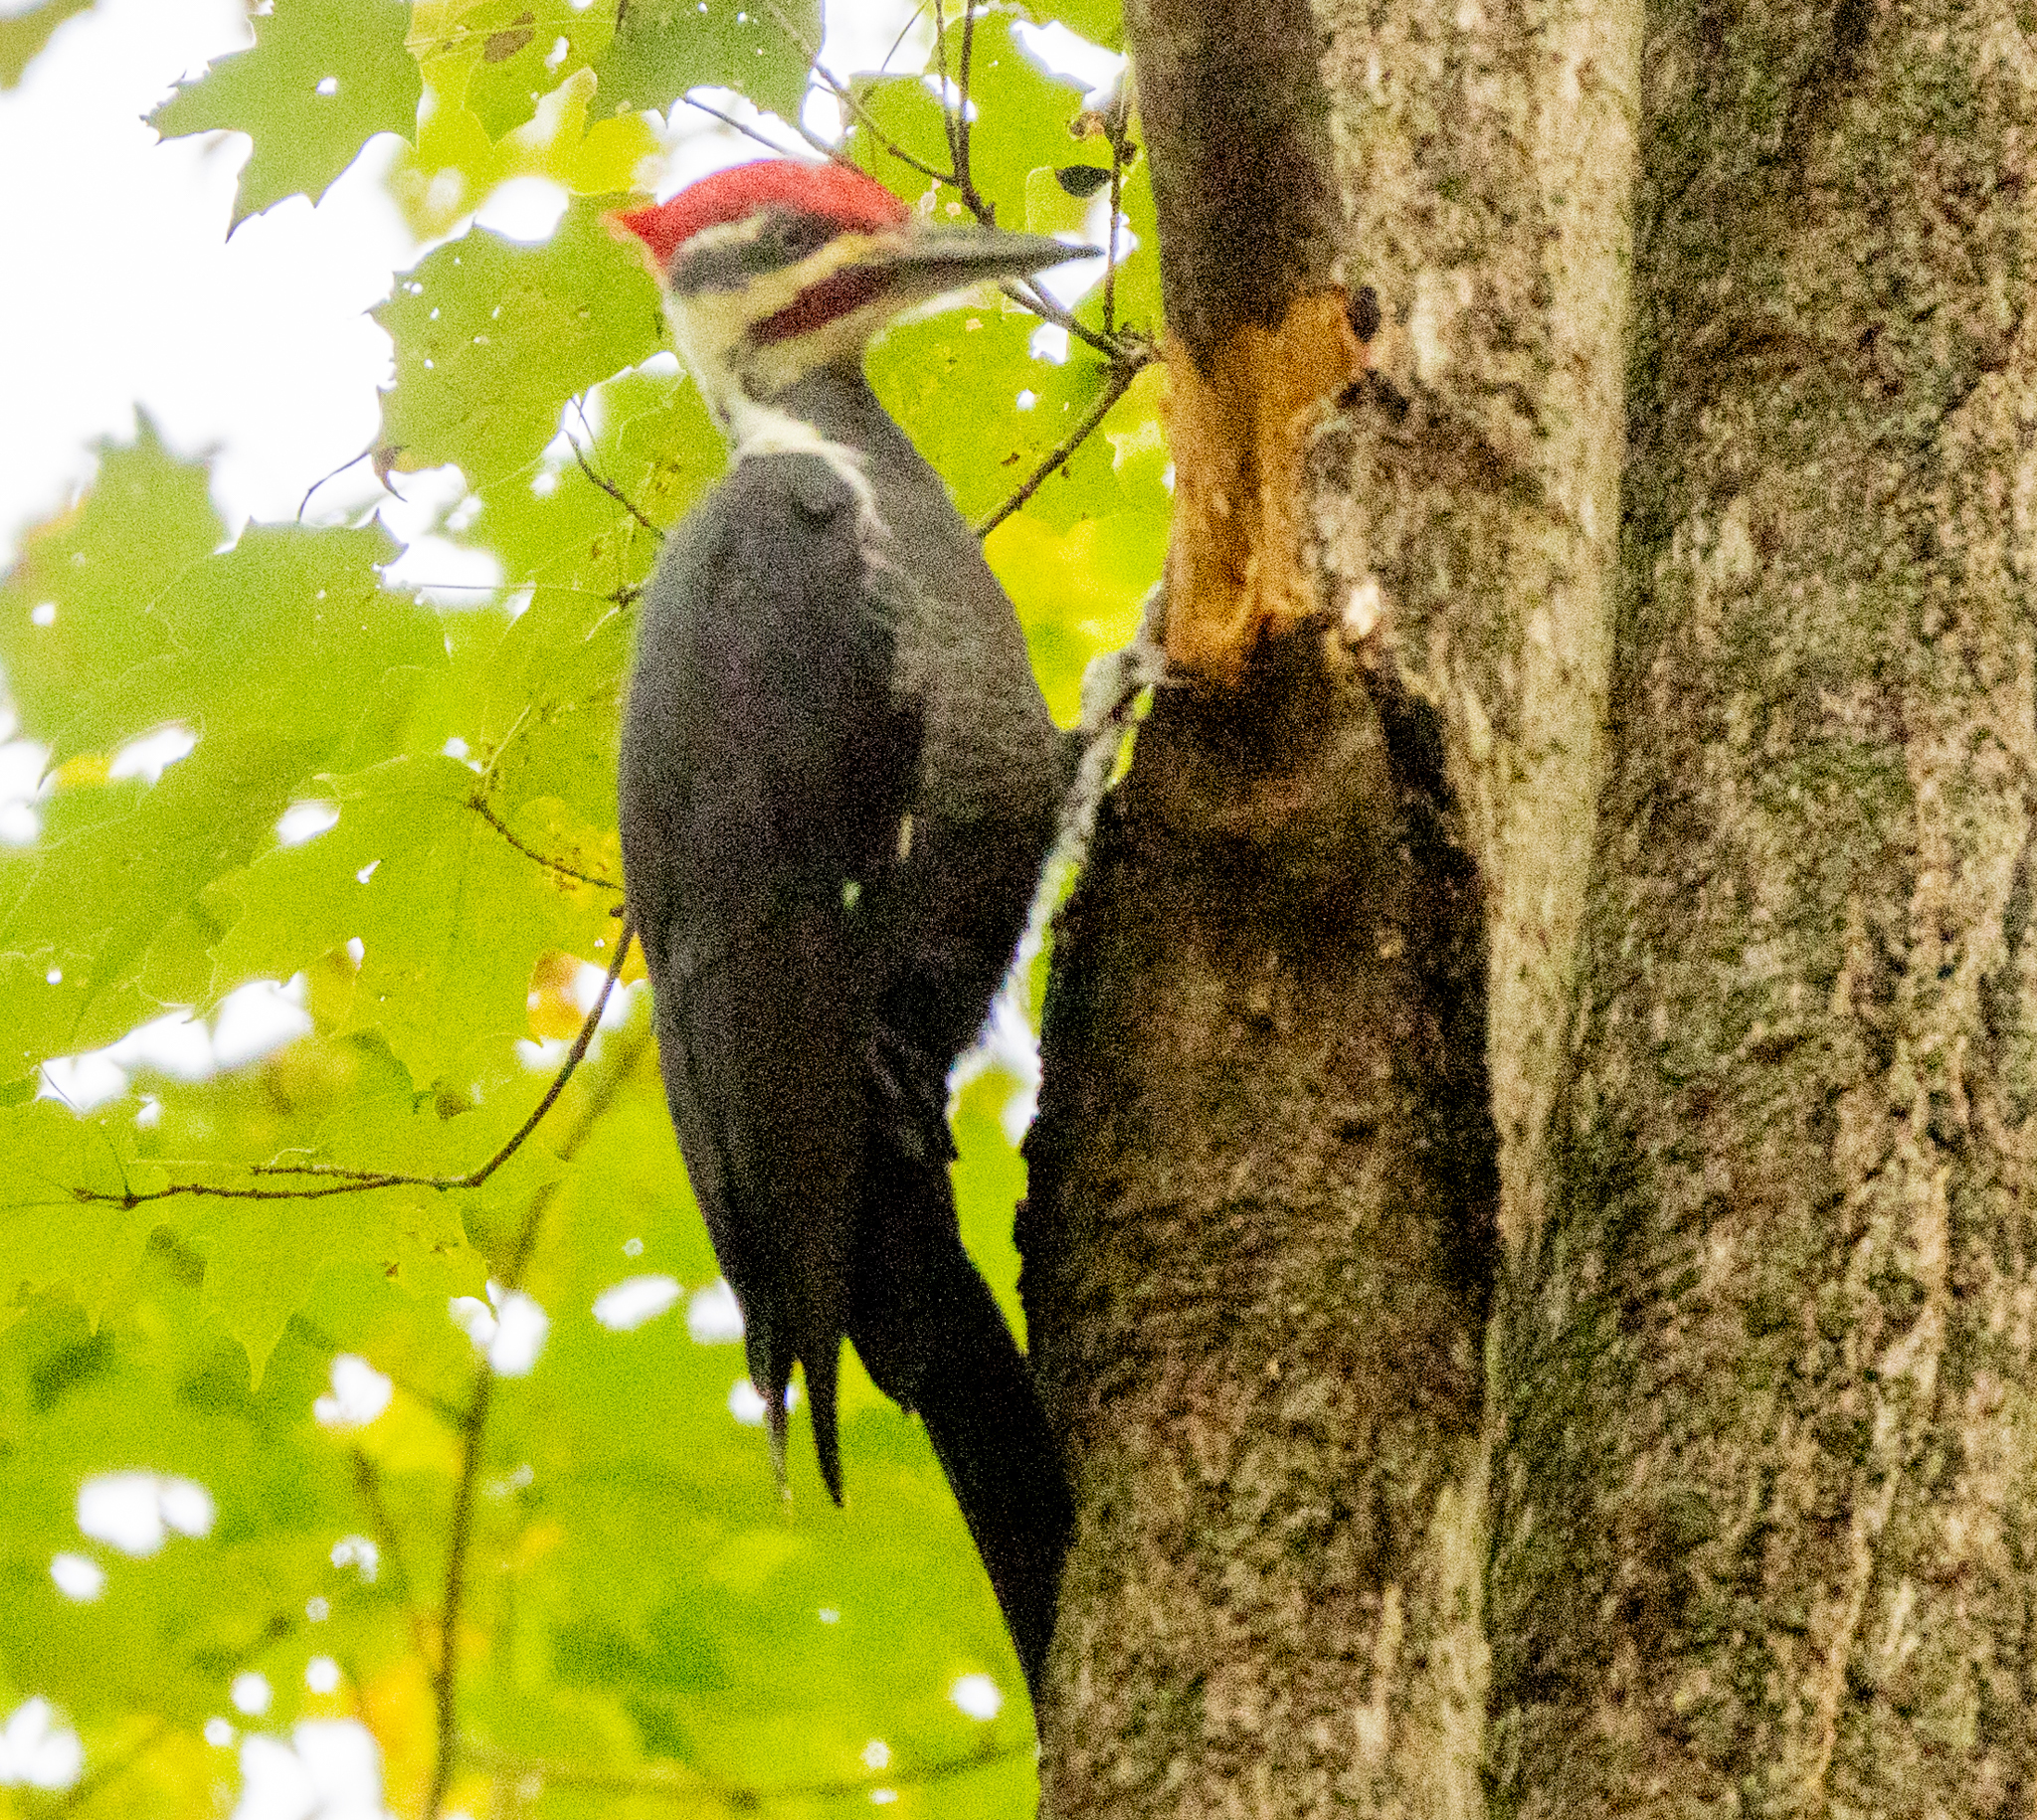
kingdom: Animalia
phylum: Chordata
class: Aves
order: Piciformes
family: Picidae
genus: Dryocopus
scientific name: Dryocopus pileatus
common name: Pileated woodpecker
